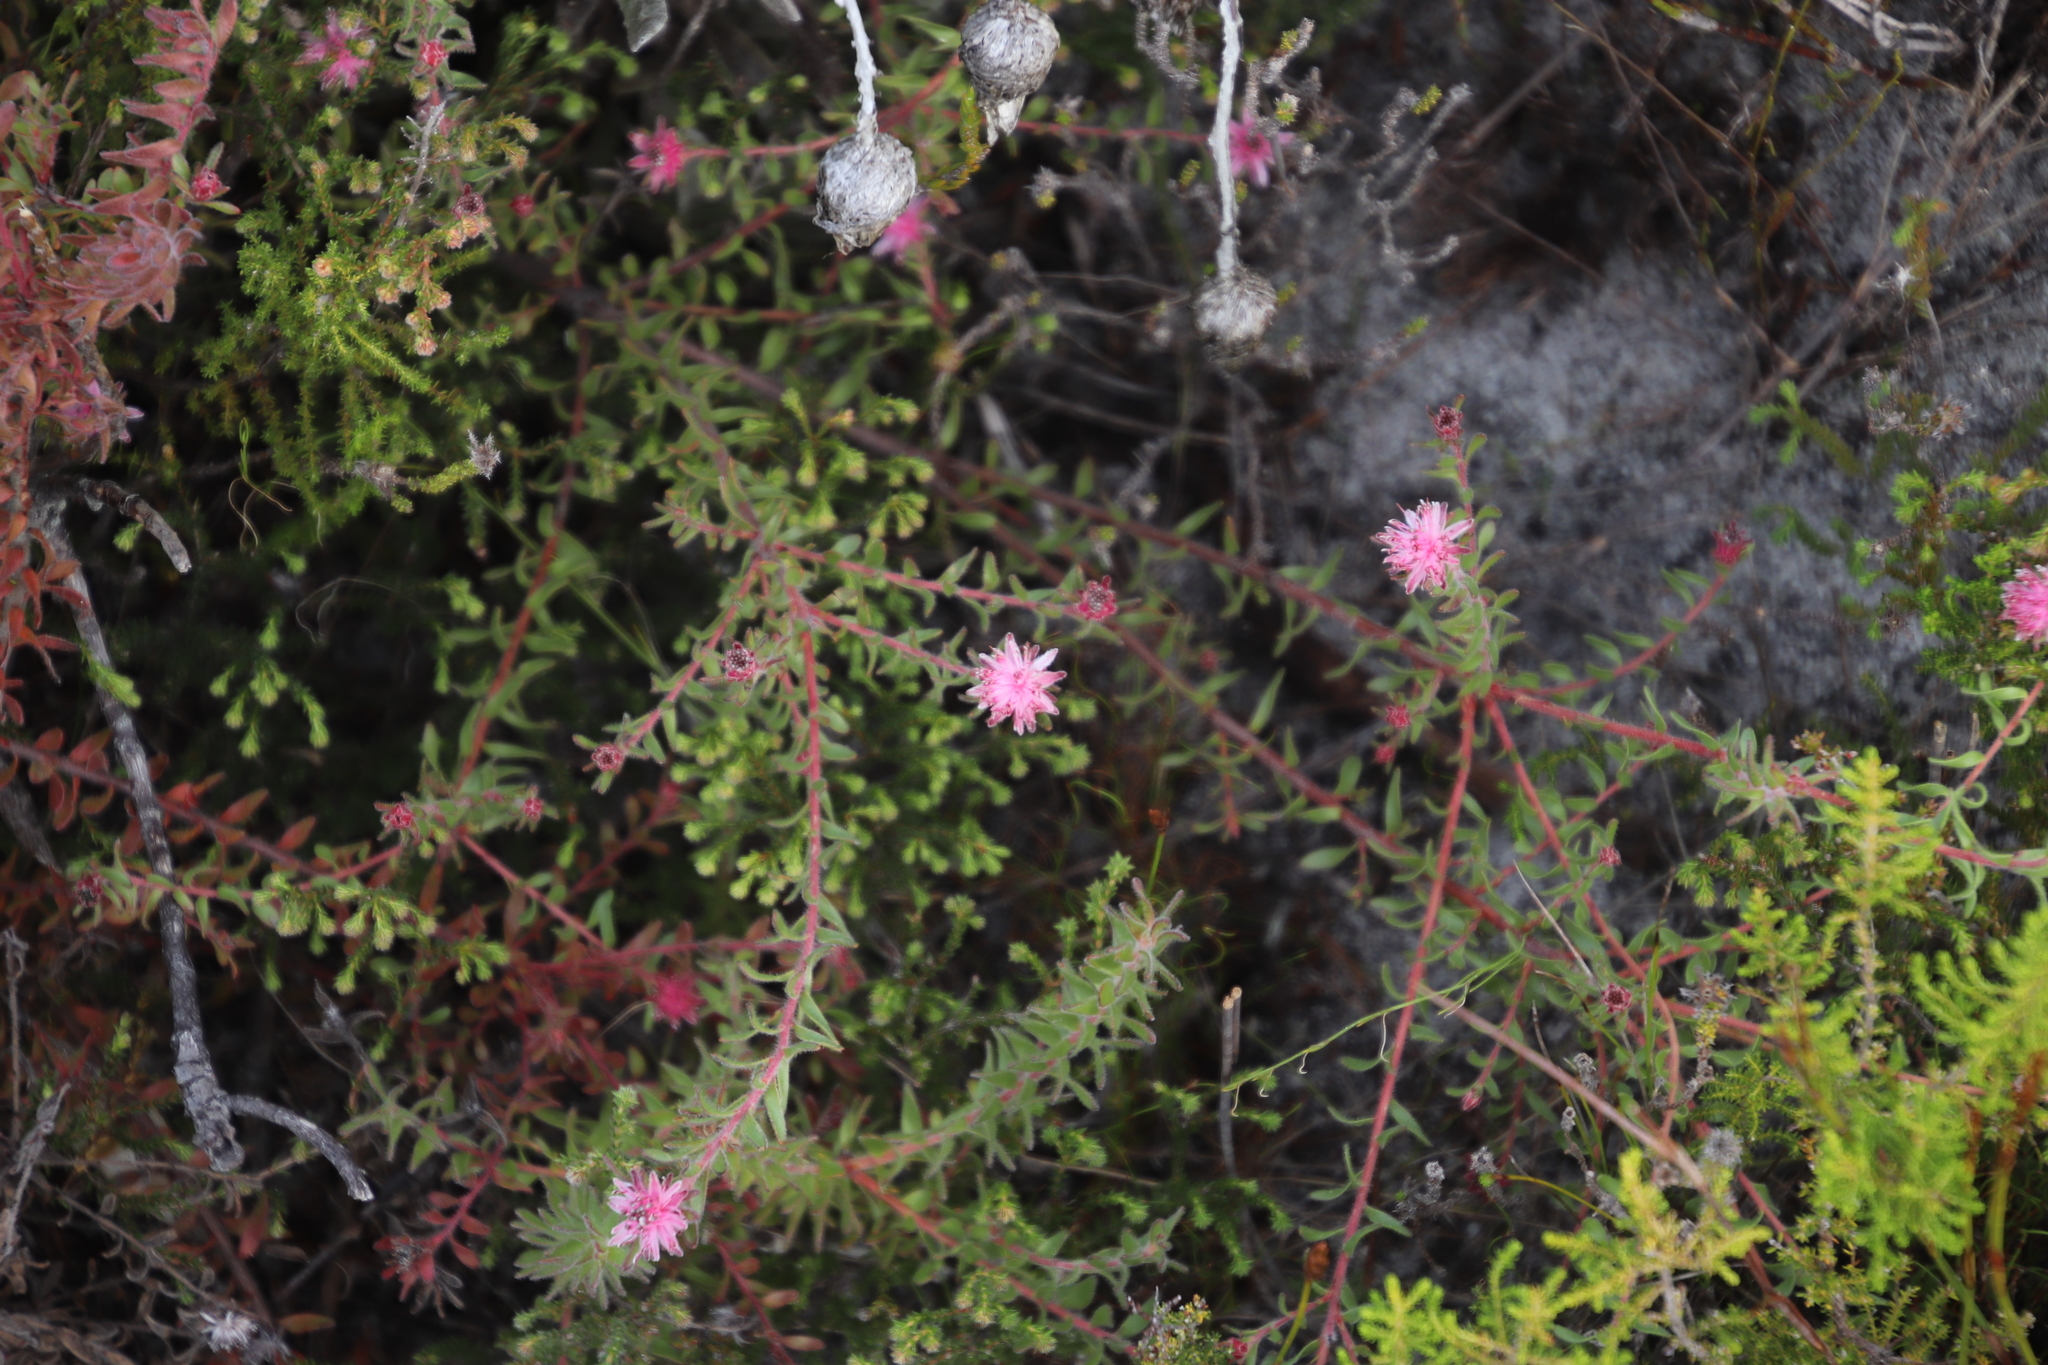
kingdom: Plantae
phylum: Tracheophyta
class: Magnoliopsida
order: Proteales
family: Proteaceae
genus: Diastella
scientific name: Diastella divaricata
